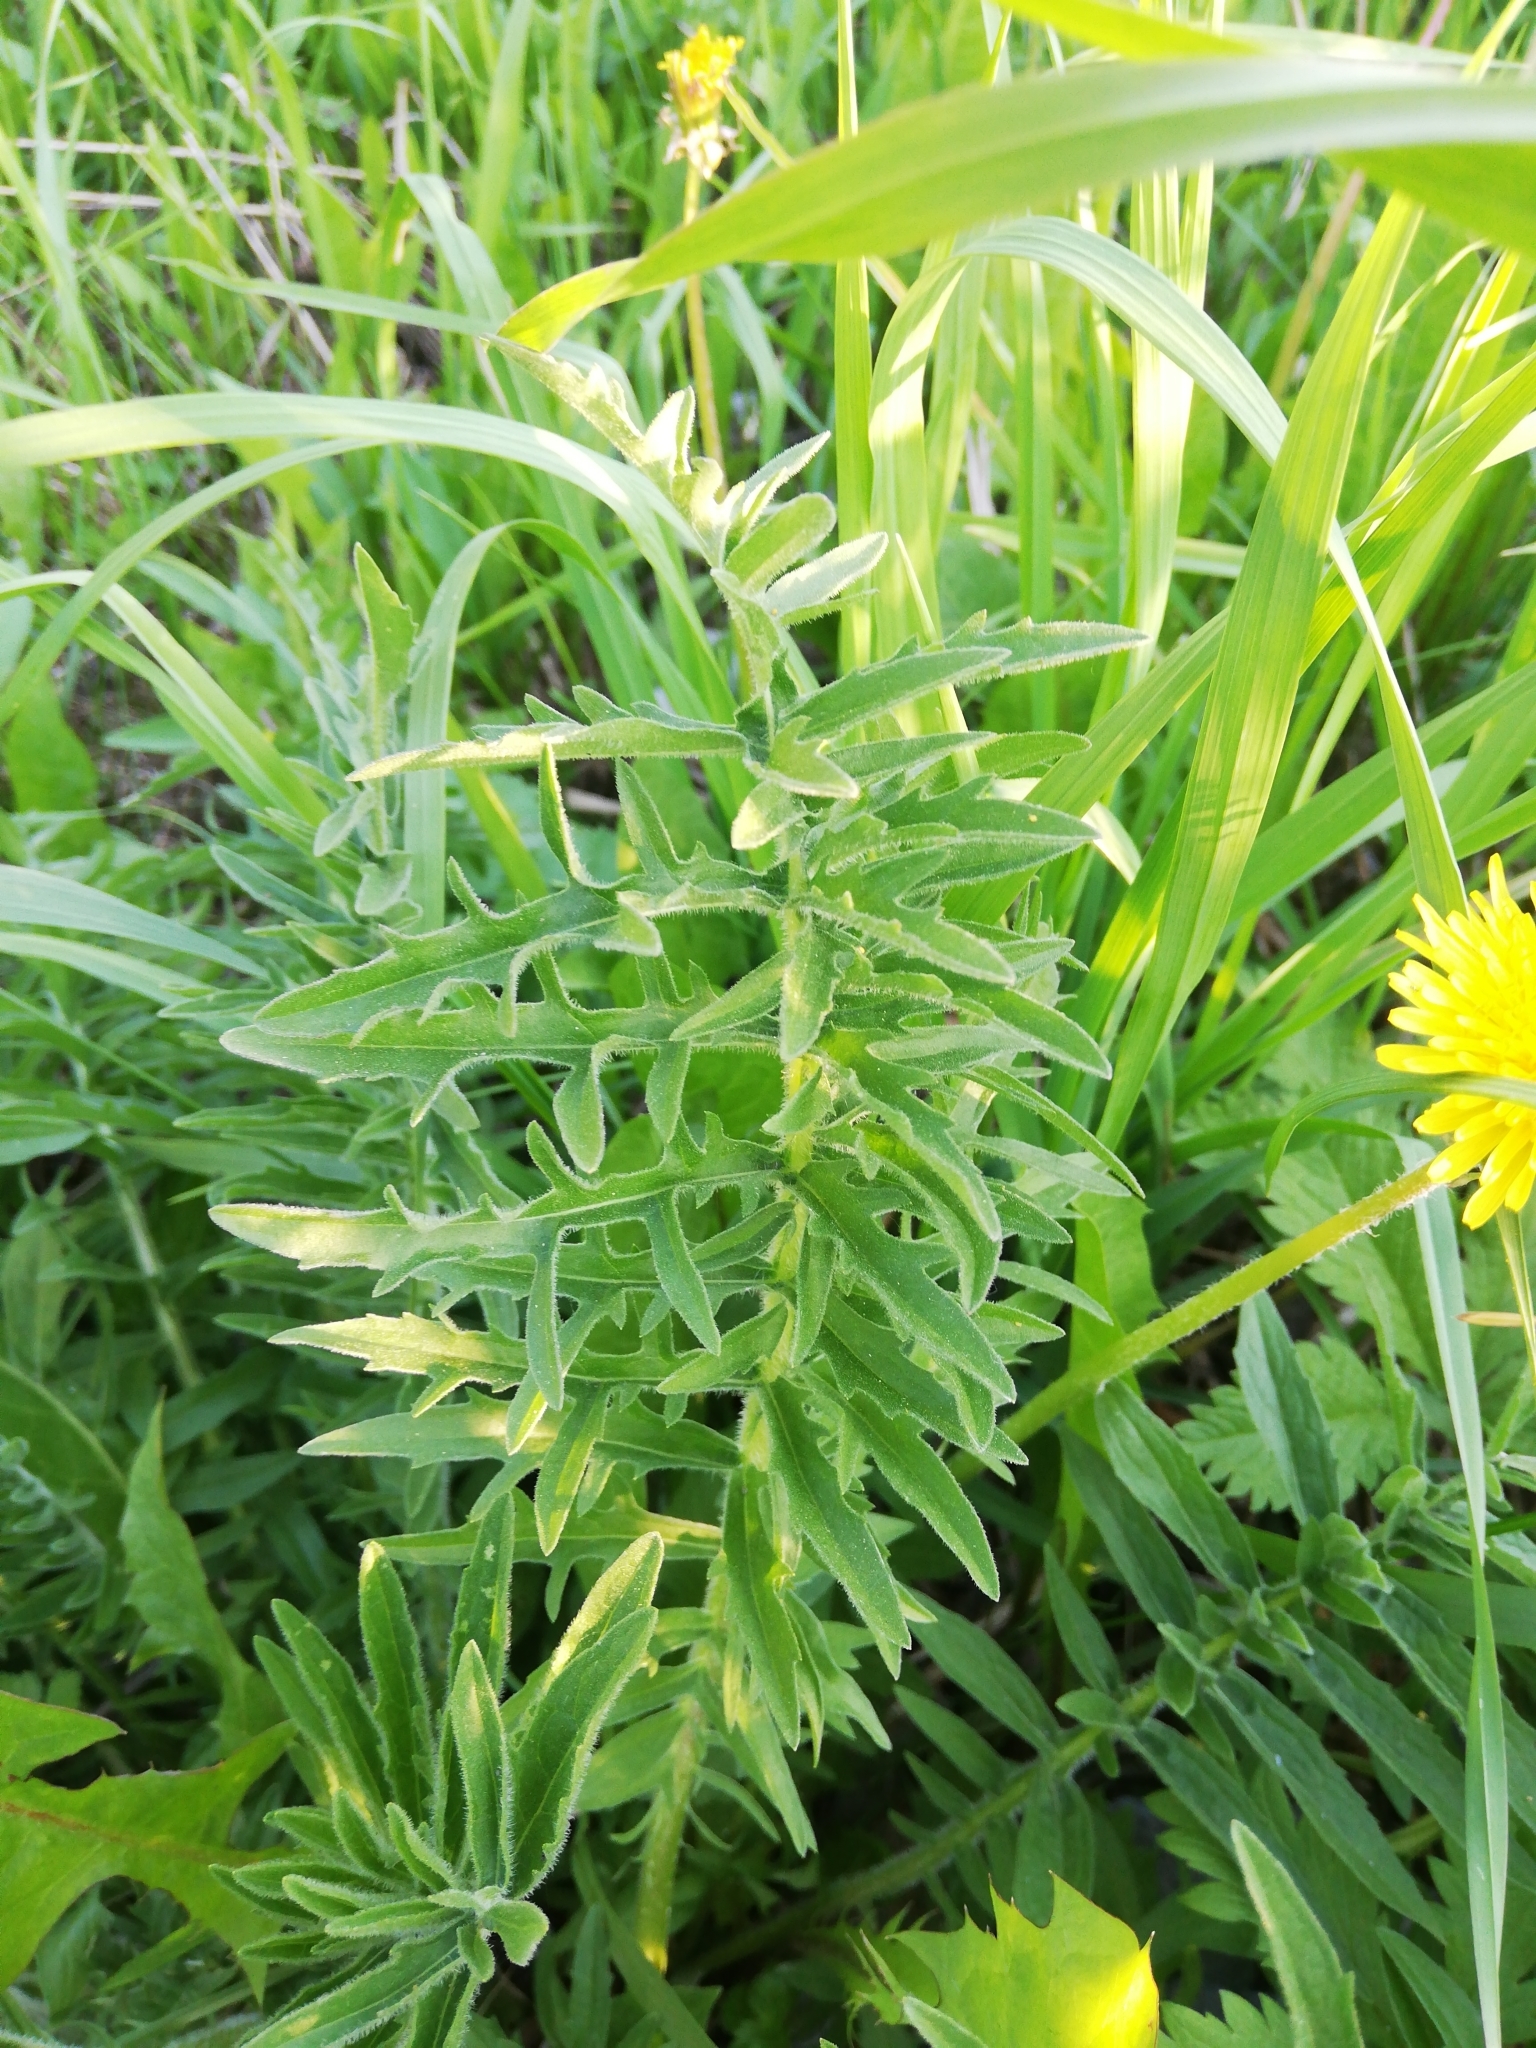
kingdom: Plantae
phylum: Tracheophyta
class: Magnoliopsida
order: Asterales
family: Asteraceae
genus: Centaurea
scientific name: Centaurea scabiosa
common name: Greater knapweed
